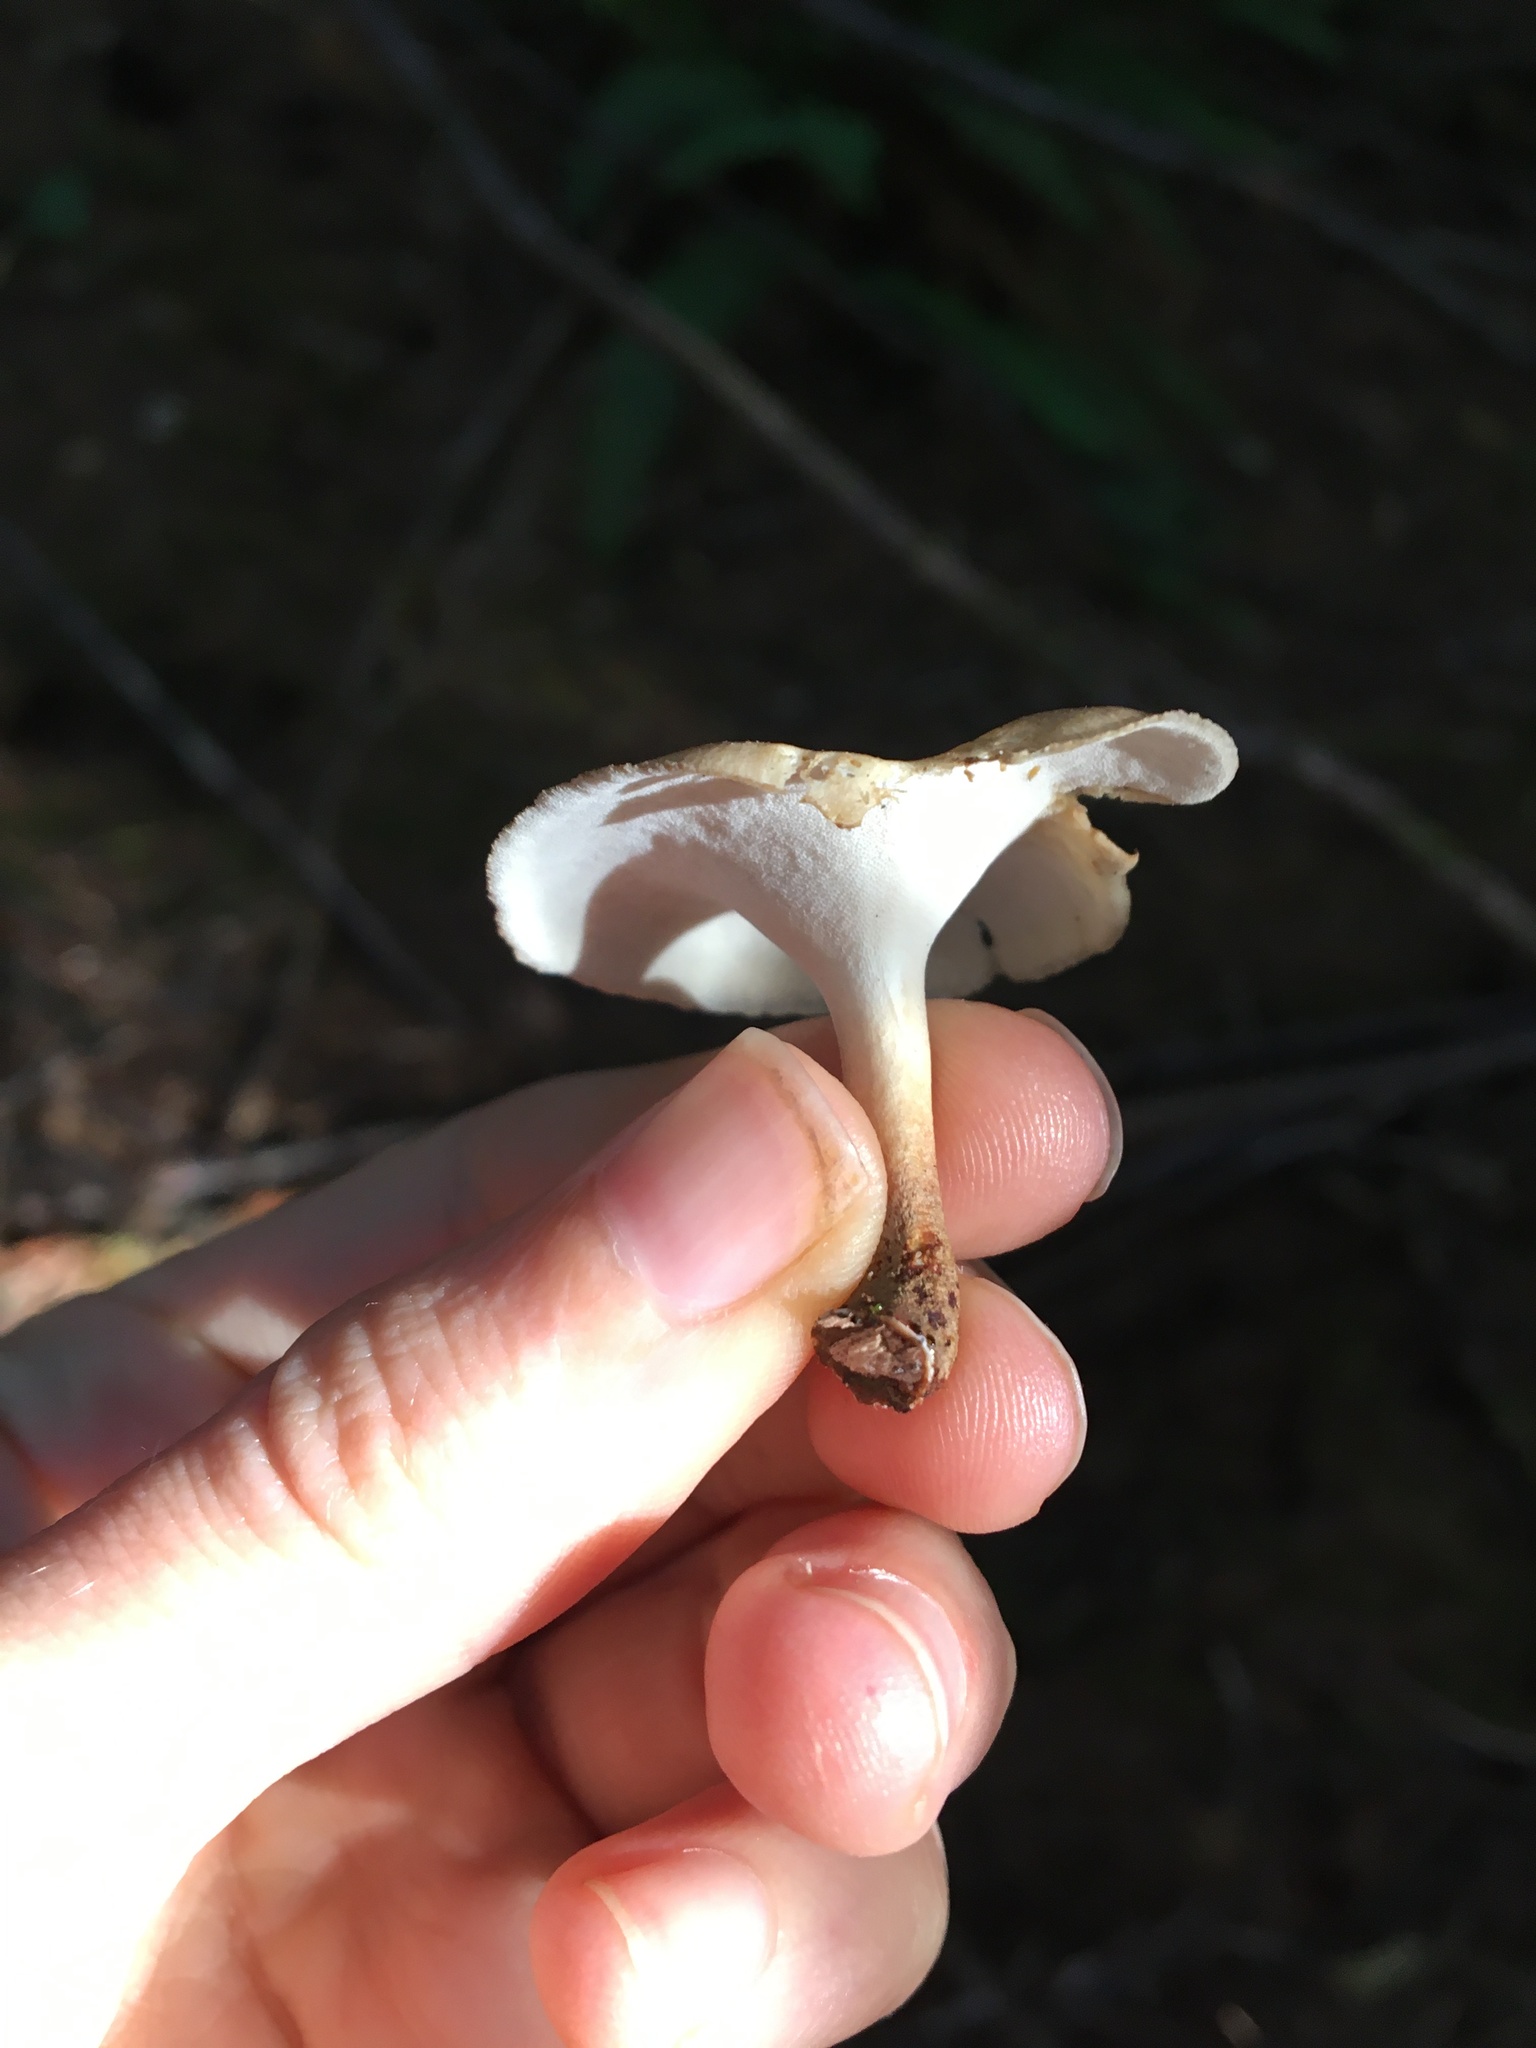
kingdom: Fungi
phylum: Basidiomycota
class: Agaricomycetes
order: Polyporales
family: Polyporaceae
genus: Cerioporus
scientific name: Cerioporus varius
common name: Elegant polypore
